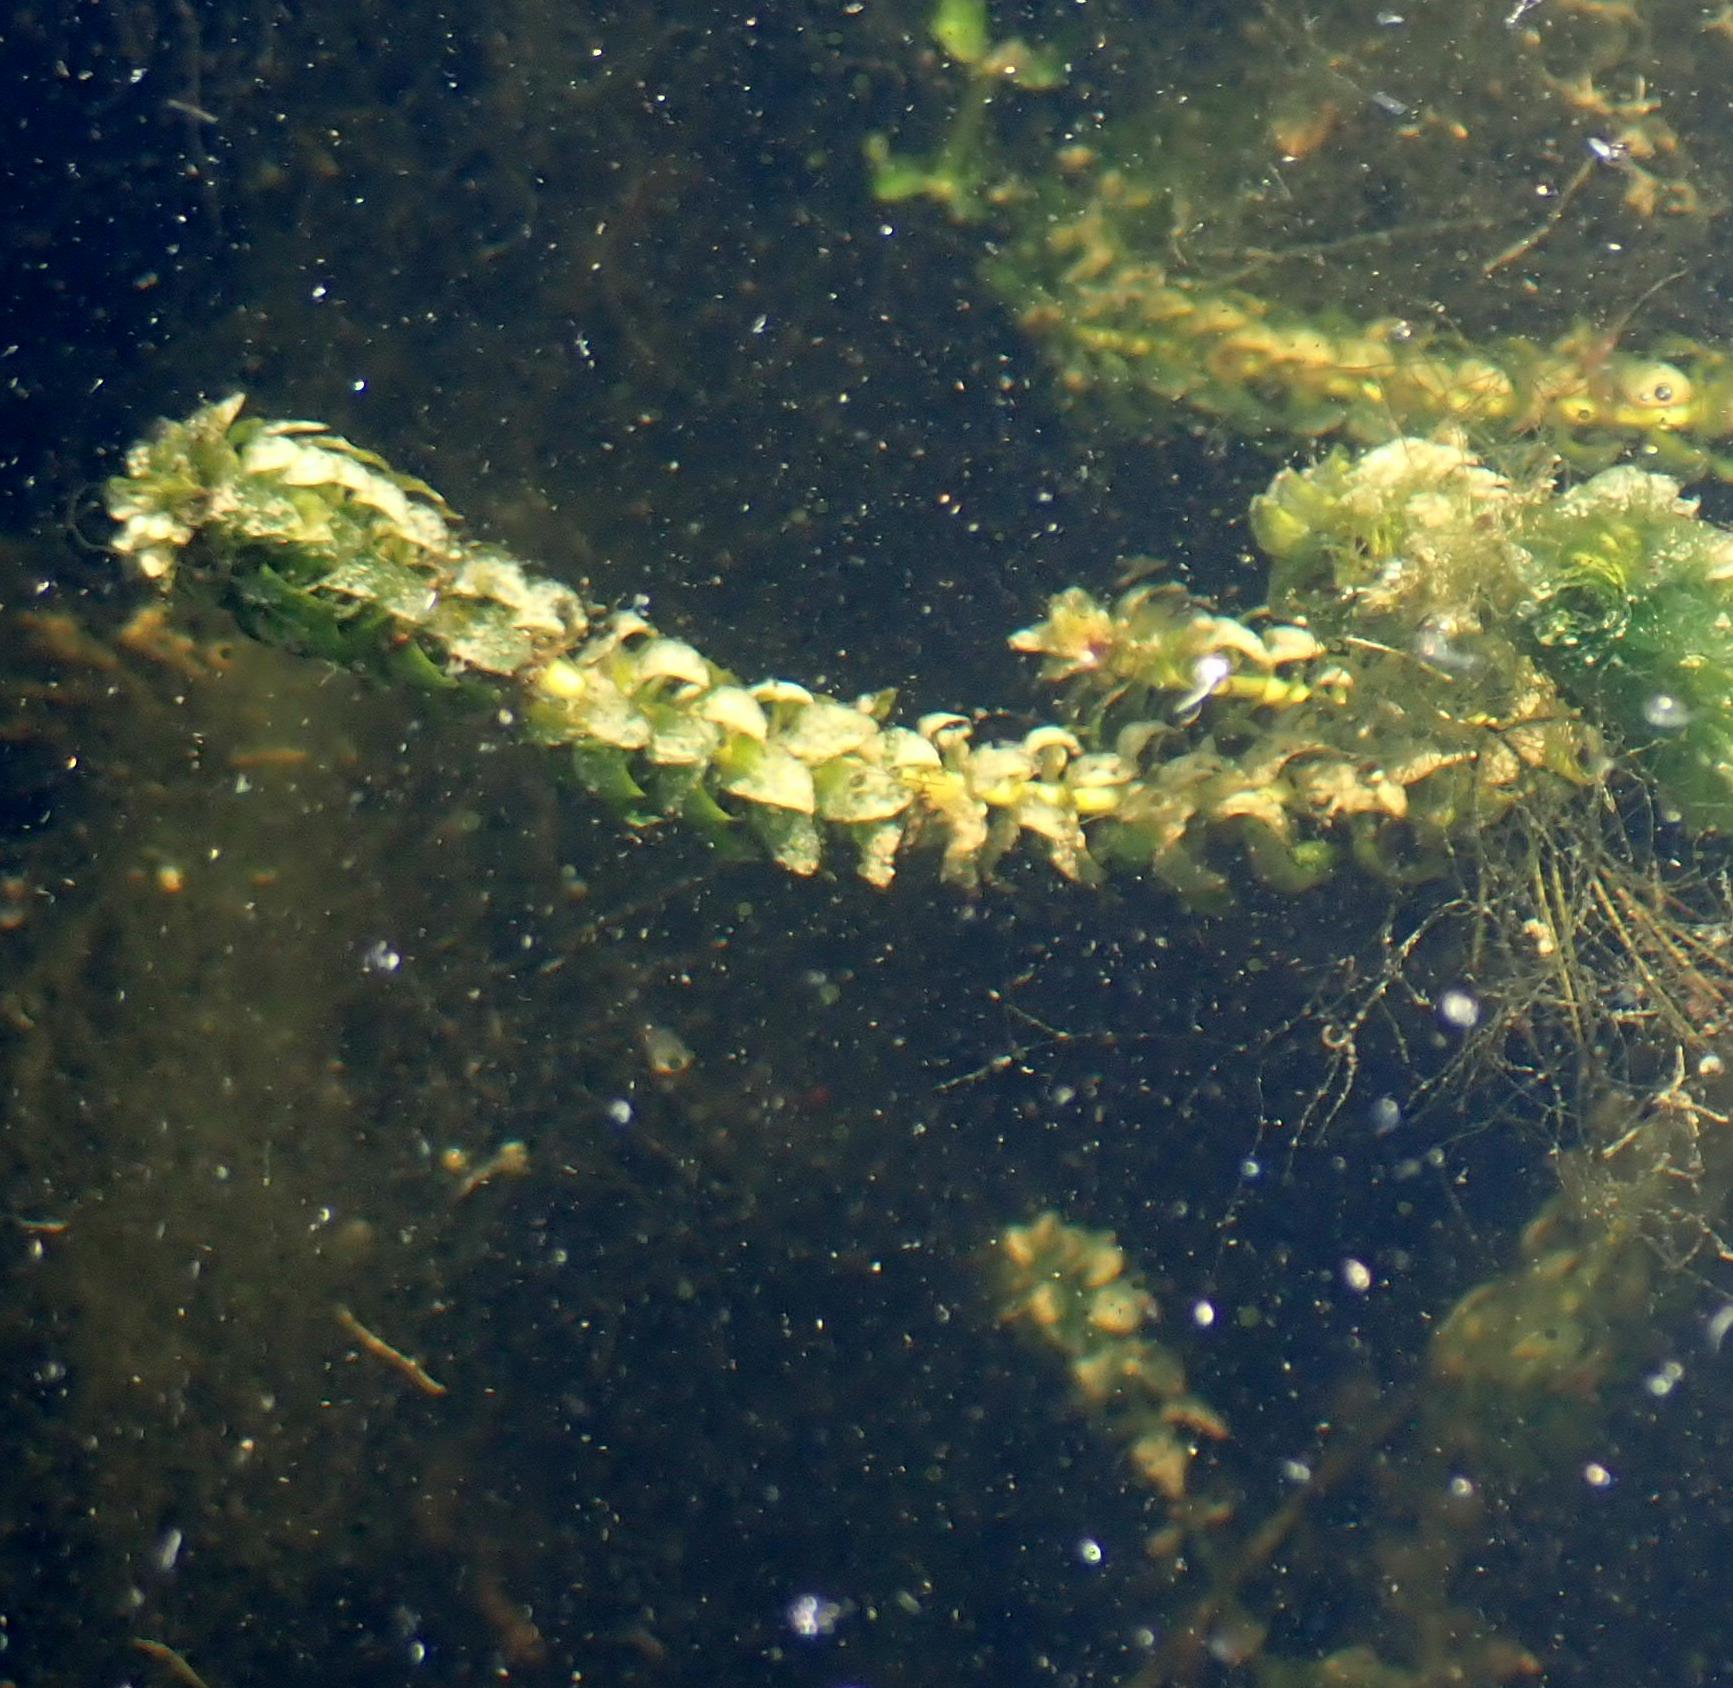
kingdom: Plantae
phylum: Tracheophyta
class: Liliopsida
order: Alismatales
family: Hydrocharitaceae
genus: Elodea
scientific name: Elodea canadensis
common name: Canadian waterweed
